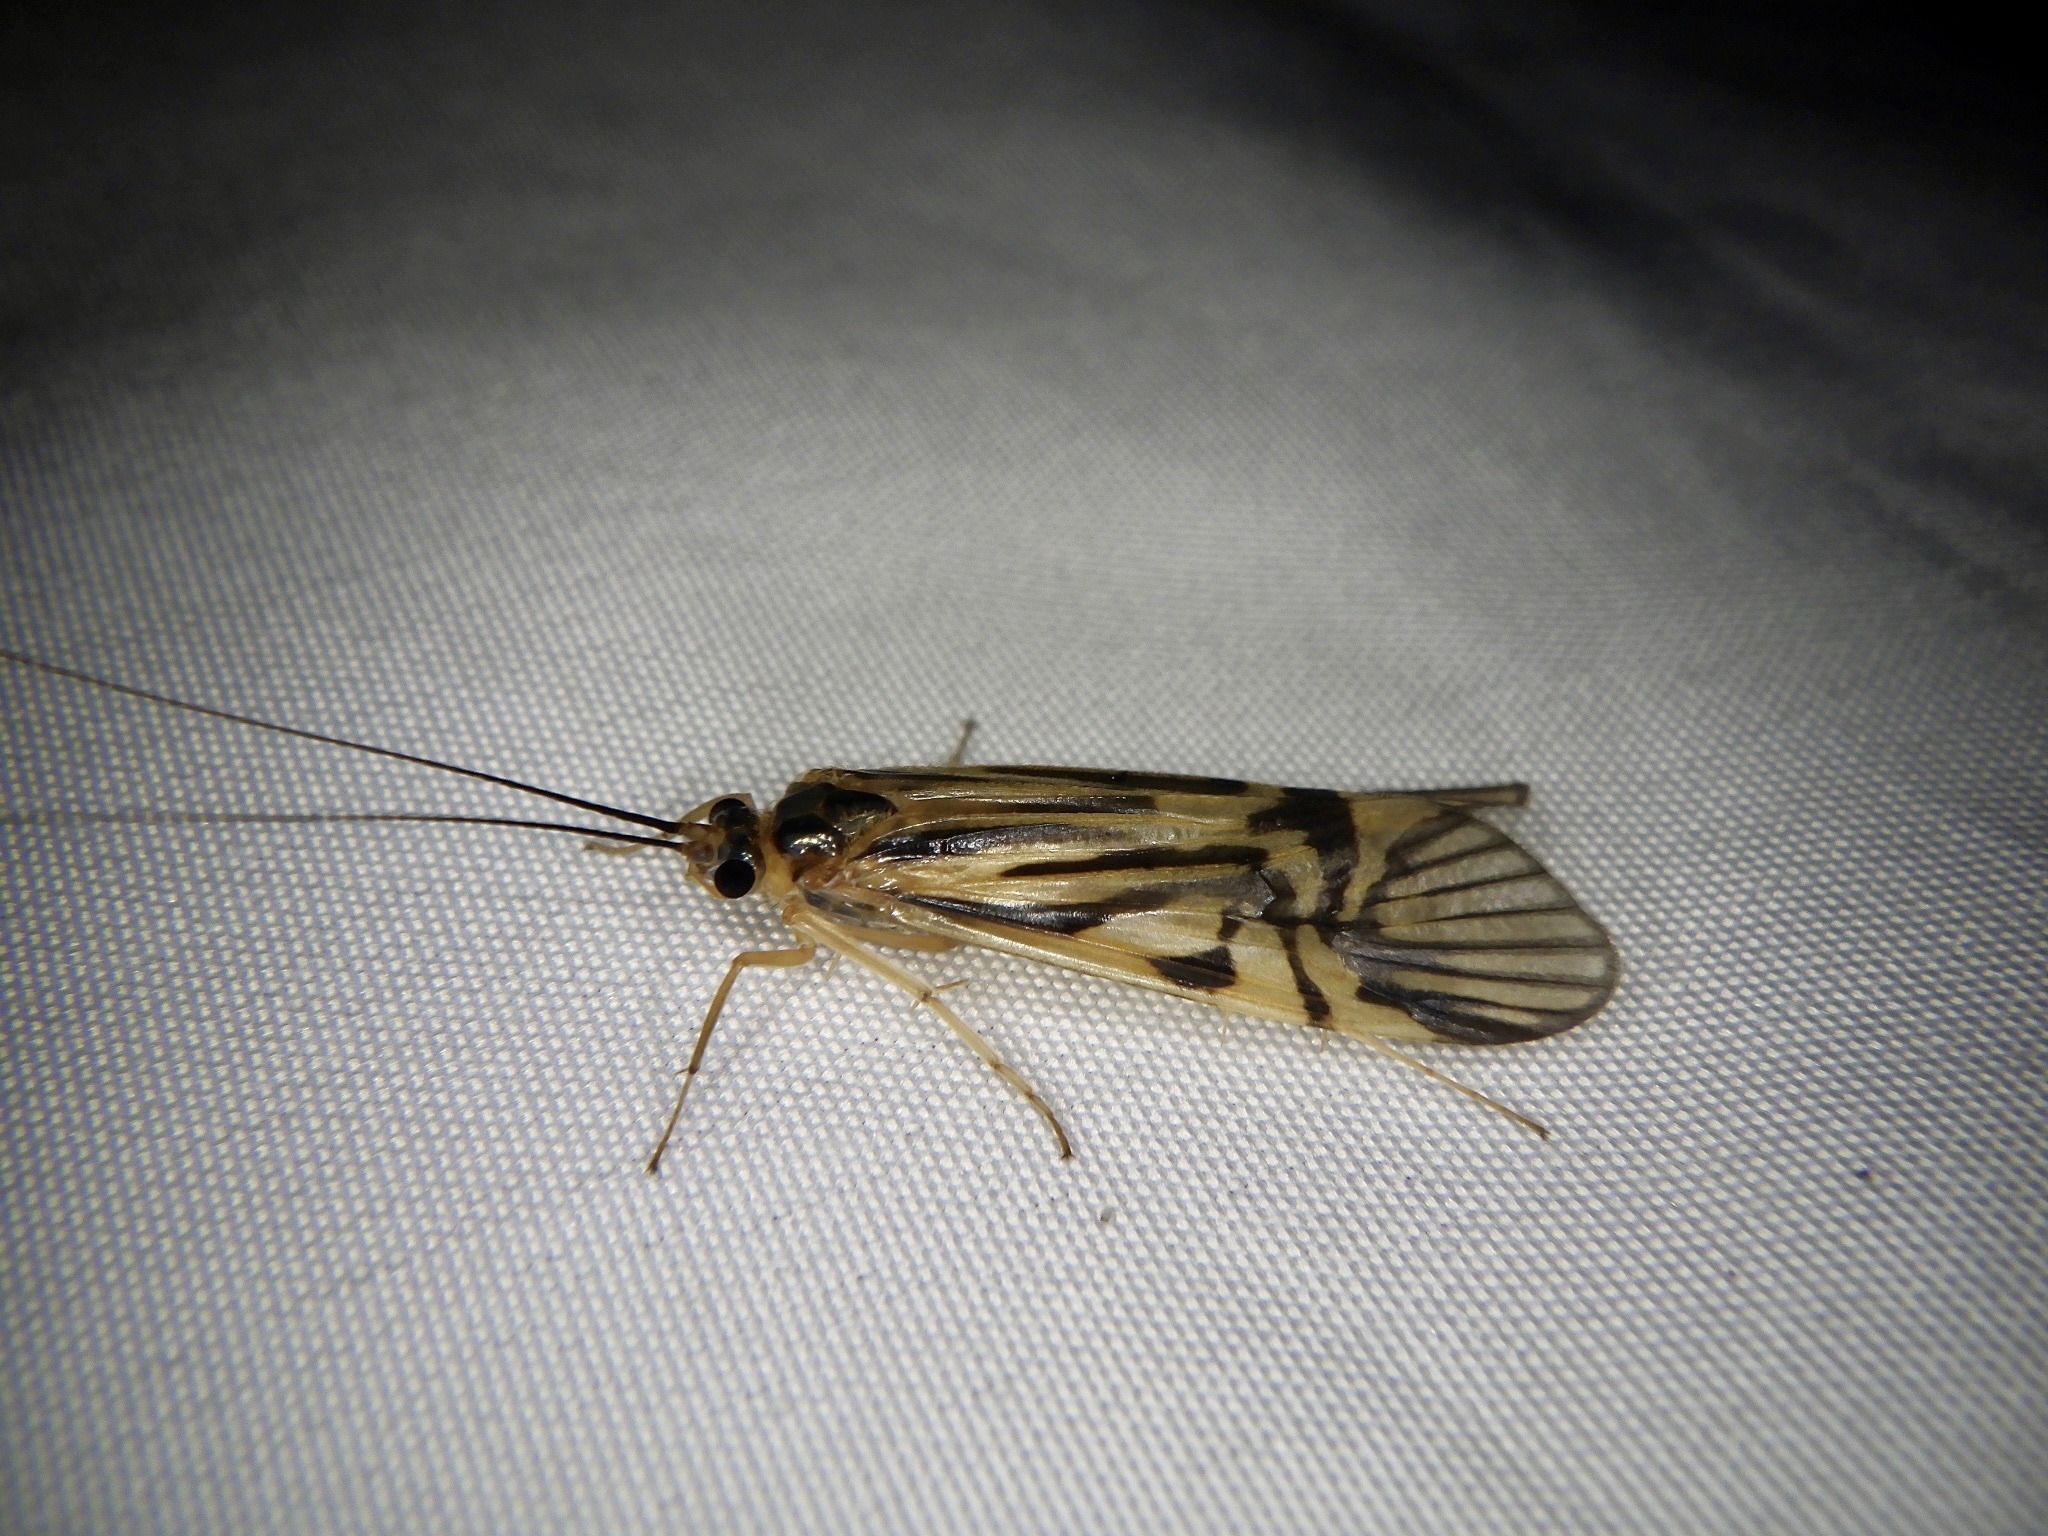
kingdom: Animalia
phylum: Arthropoda
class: Insecta
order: Trichoptera
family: Hydropsychidae
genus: Macrostemum
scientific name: Macrostemum radiatum
